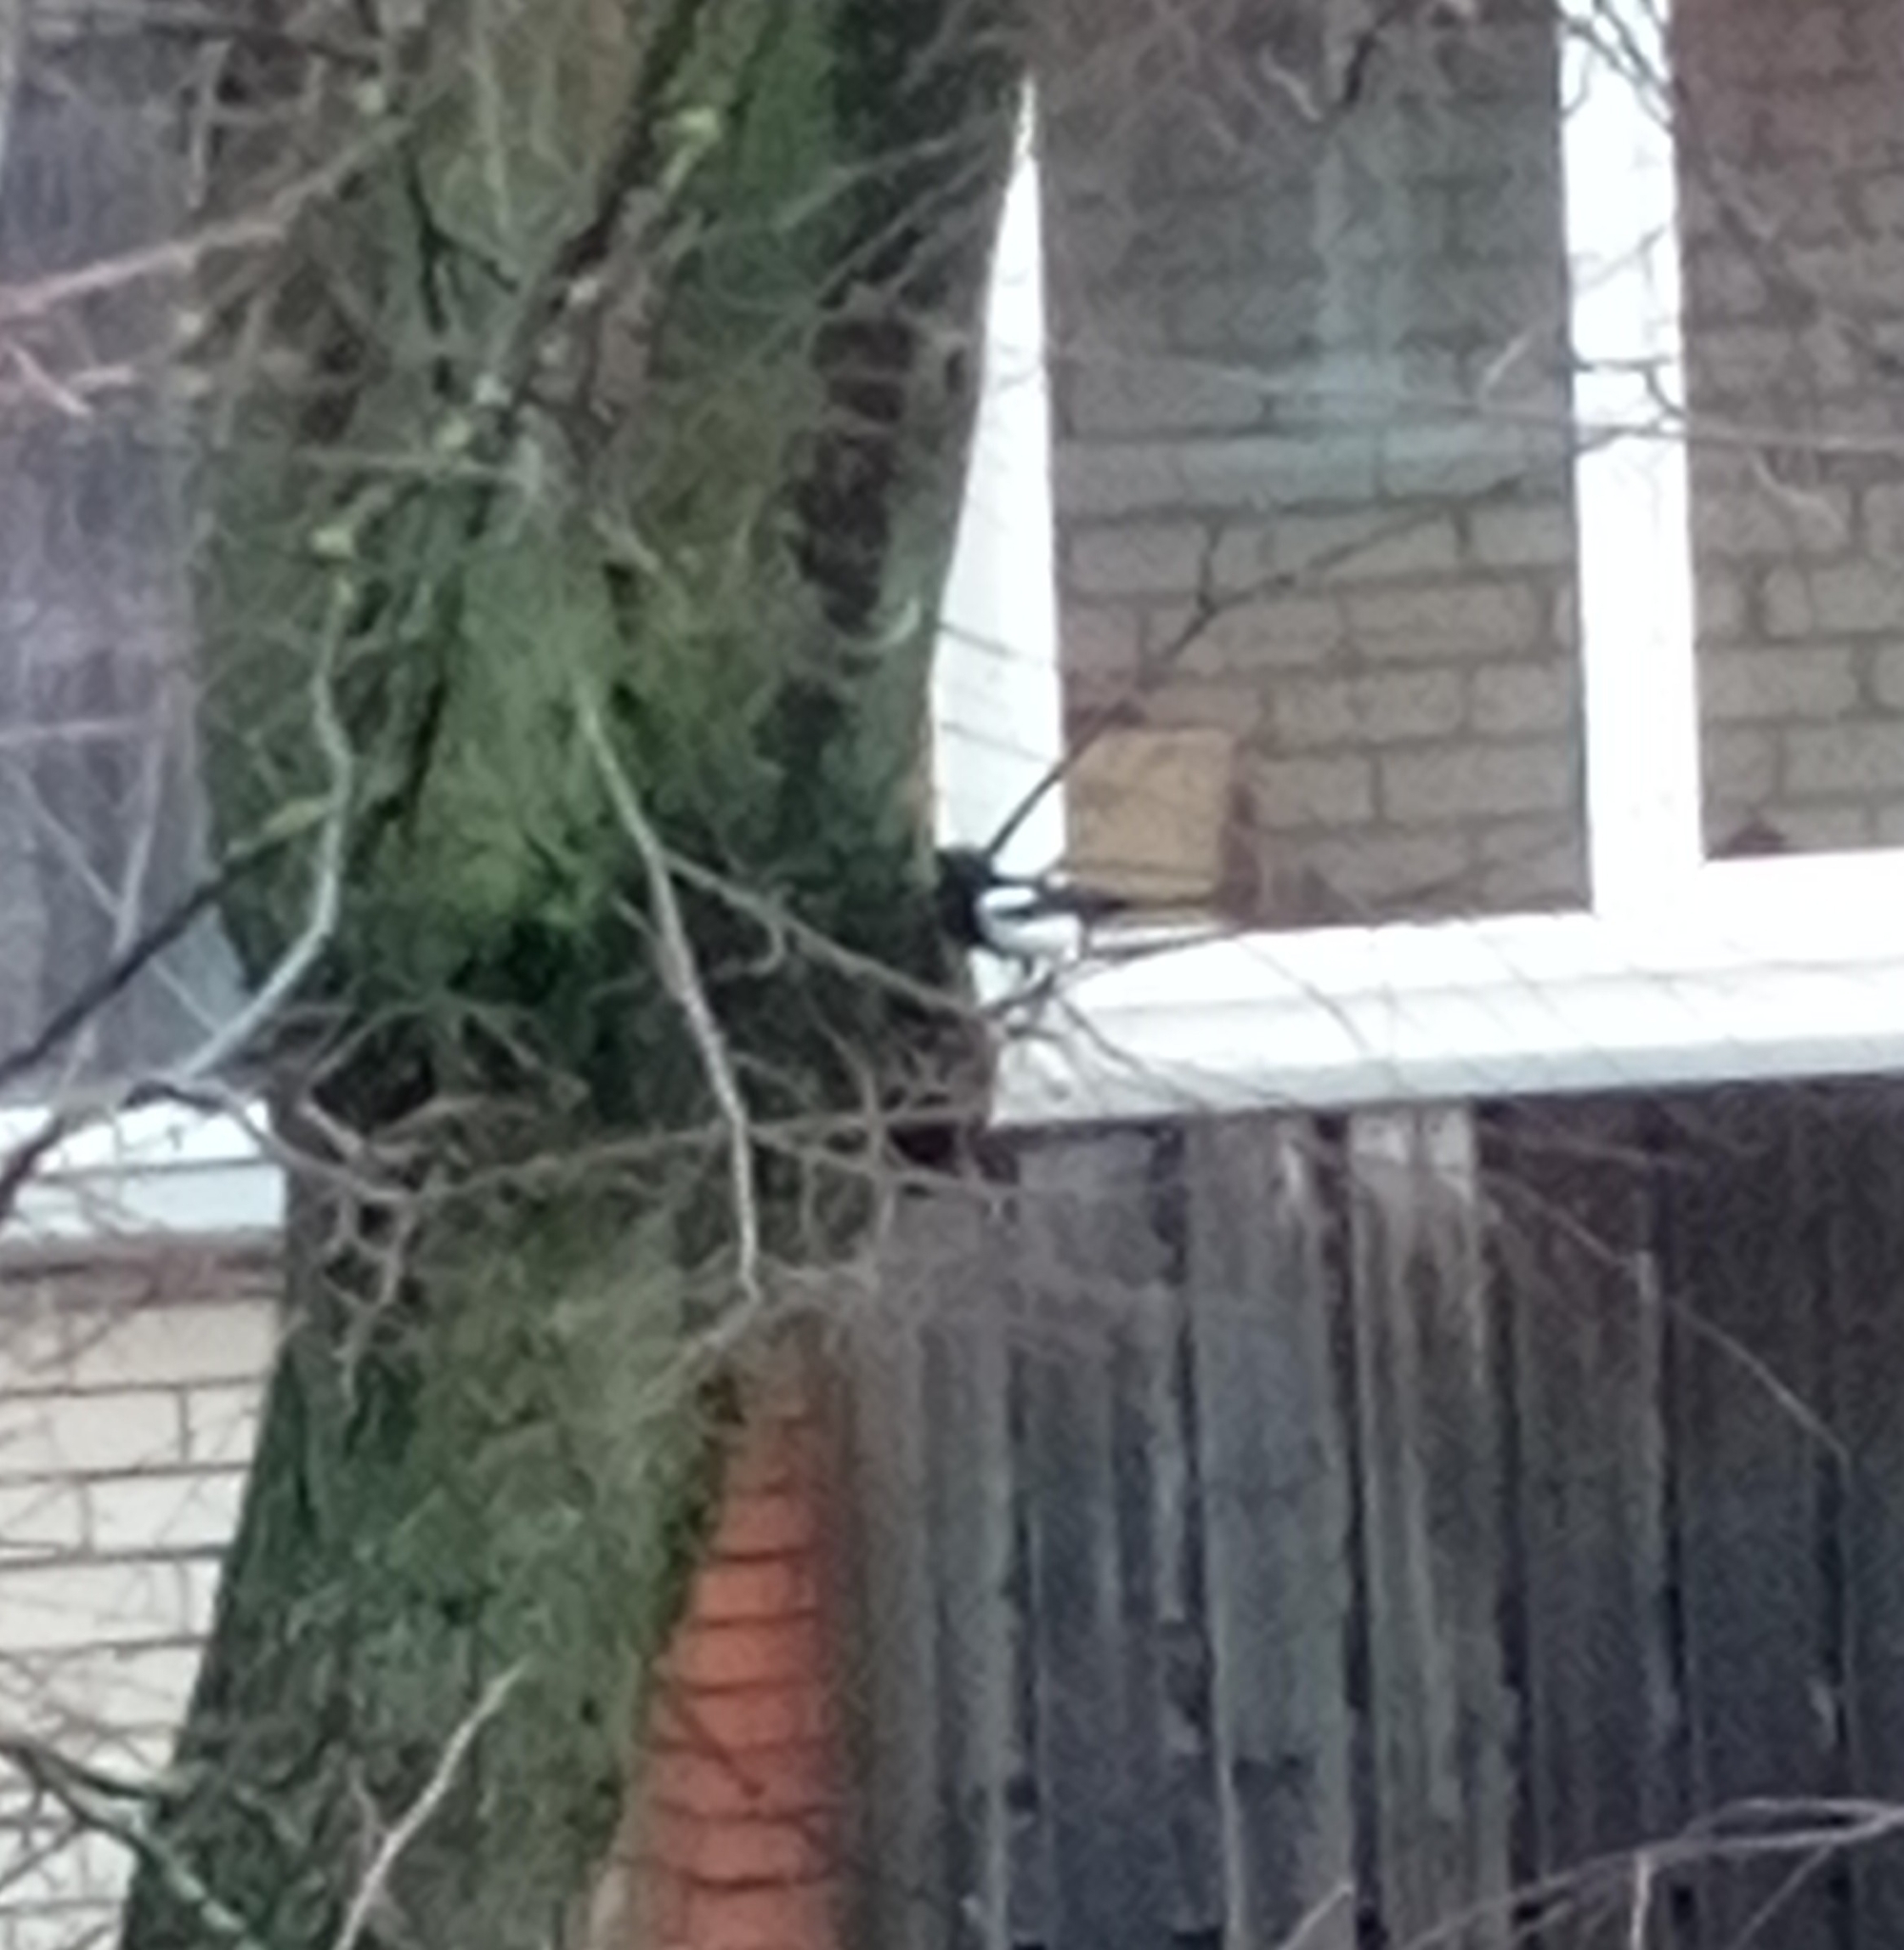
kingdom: Animalia
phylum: Chordata
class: Aves
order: Passeriformes
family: Corvidae
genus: Pica
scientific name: Pica pica
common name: Eurasian magpie
